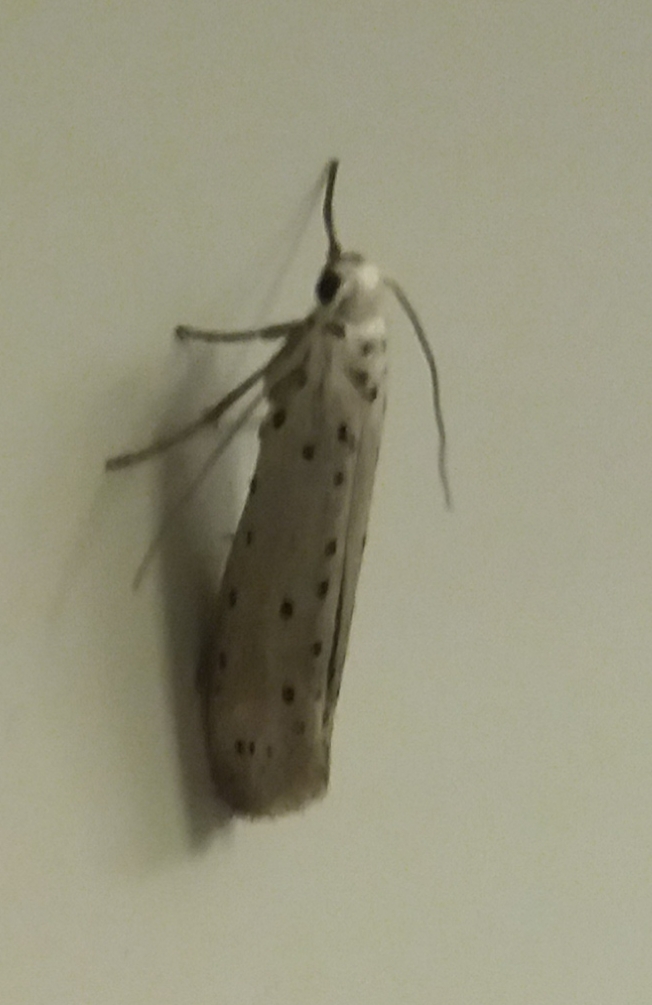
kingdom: Animalia
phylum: Arthropoda
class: Insecta
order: Lepidoptera
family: Yponomeutidae
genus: Yponomeuta
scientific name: Yponomeuta padella
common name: Orchard ermine
